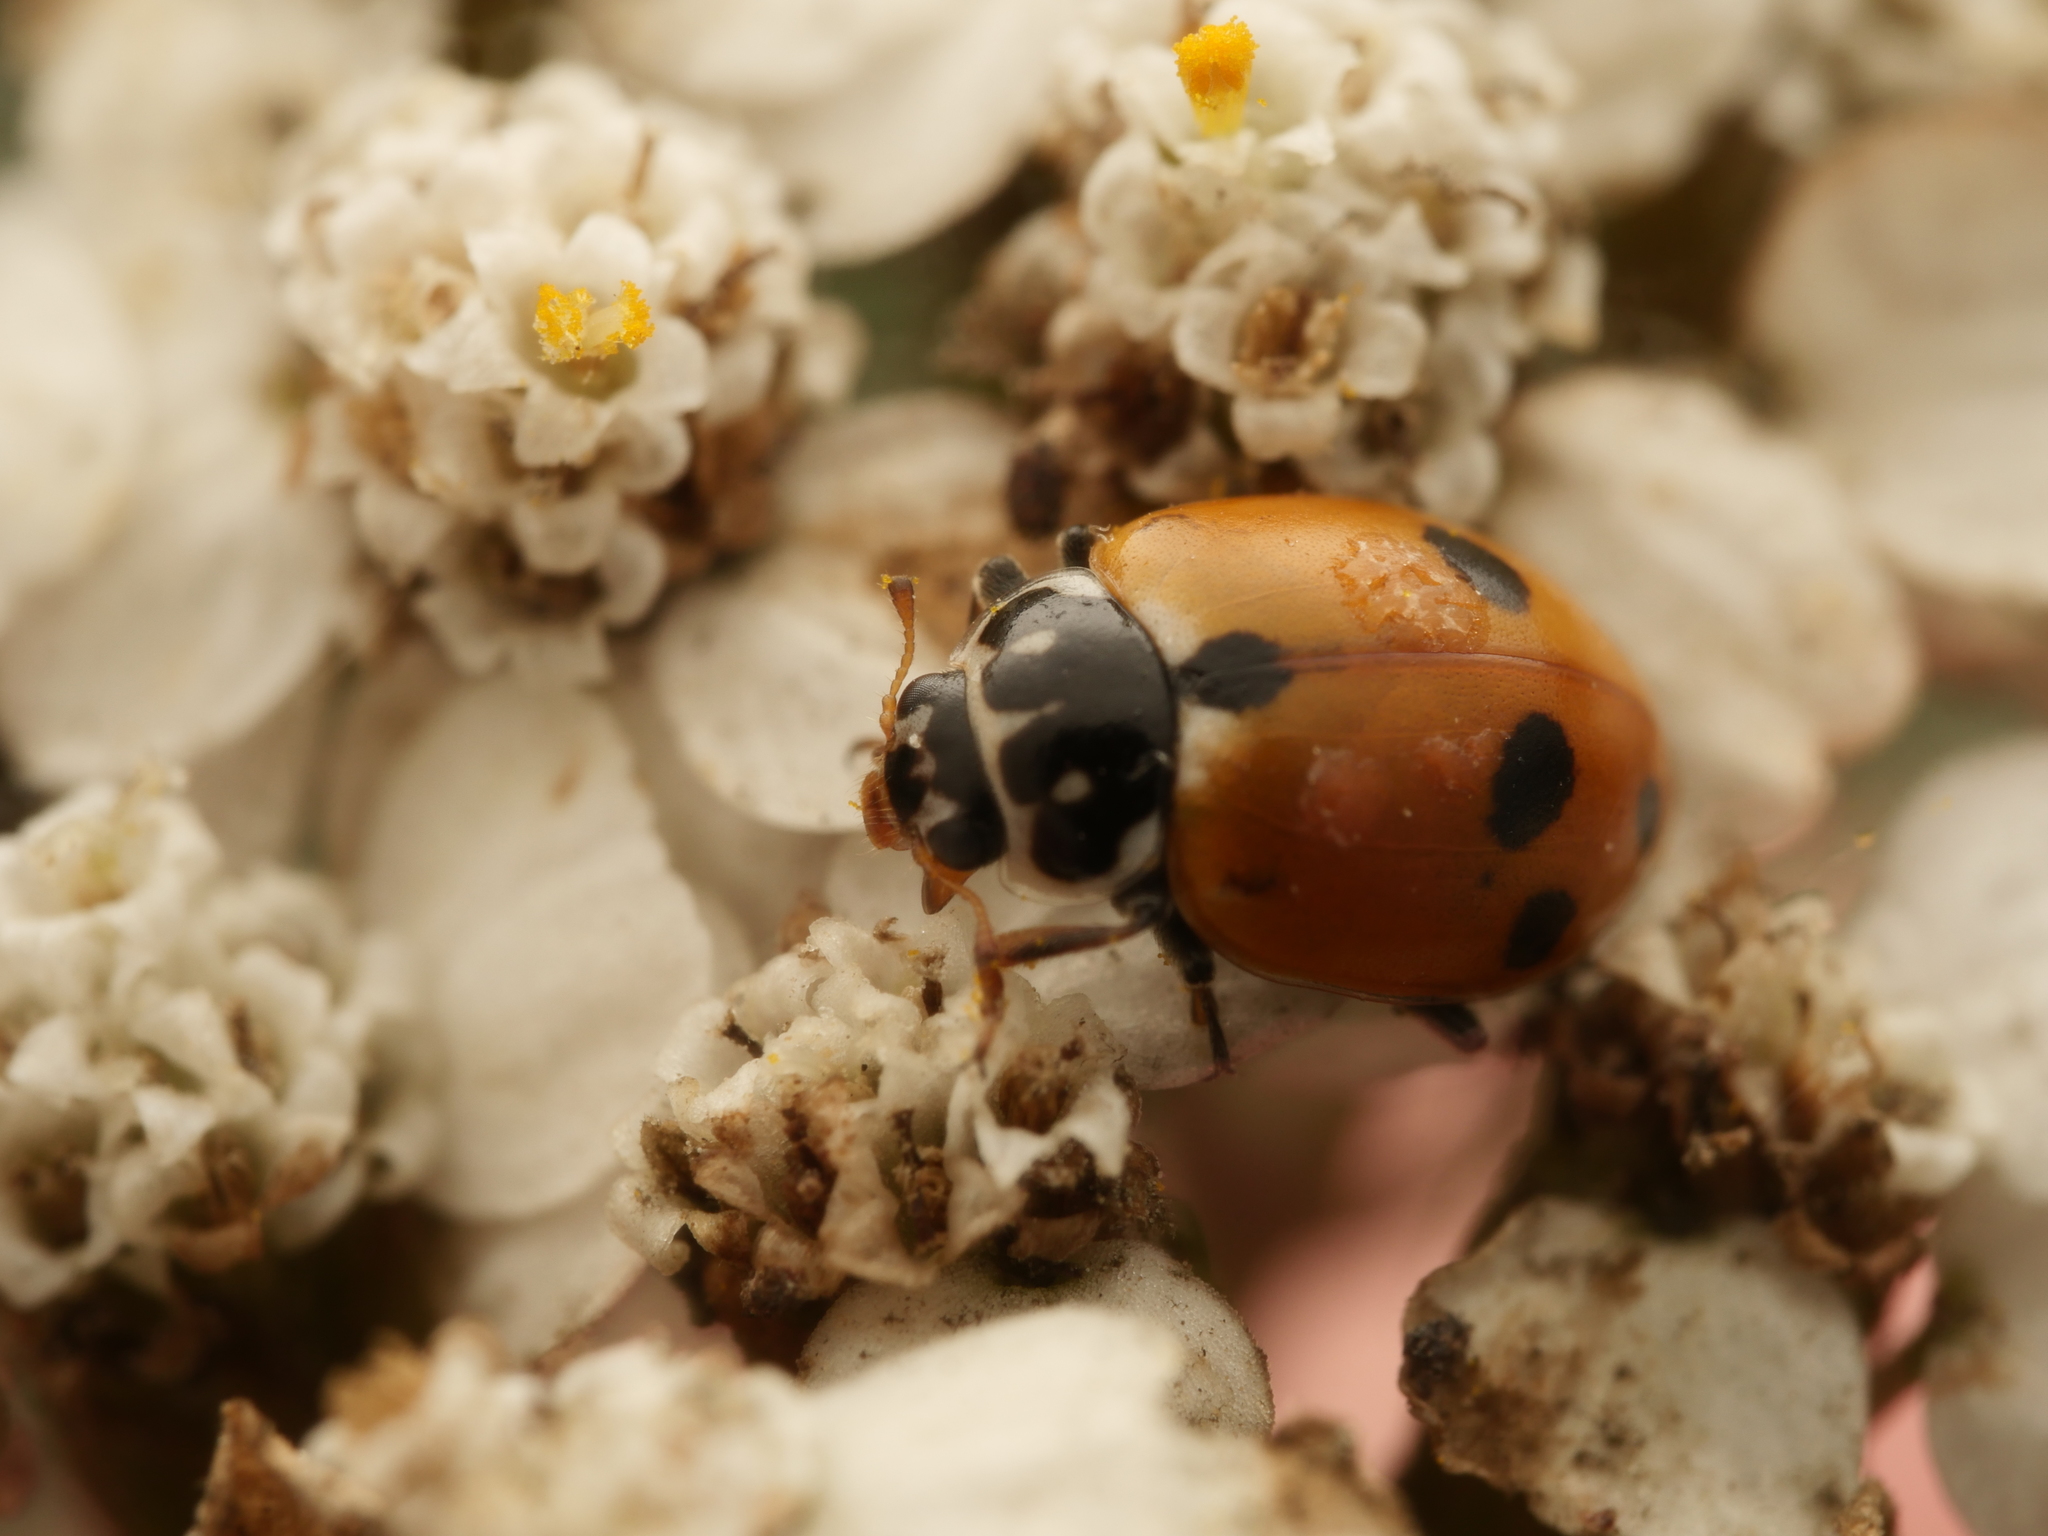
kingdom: Animalia
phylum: Arthropoda
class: Insecta
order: Coleoptera
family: Coccinellidae
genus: Hippodamia
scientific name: Hippodamia variegata
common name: Ladybird beetle
